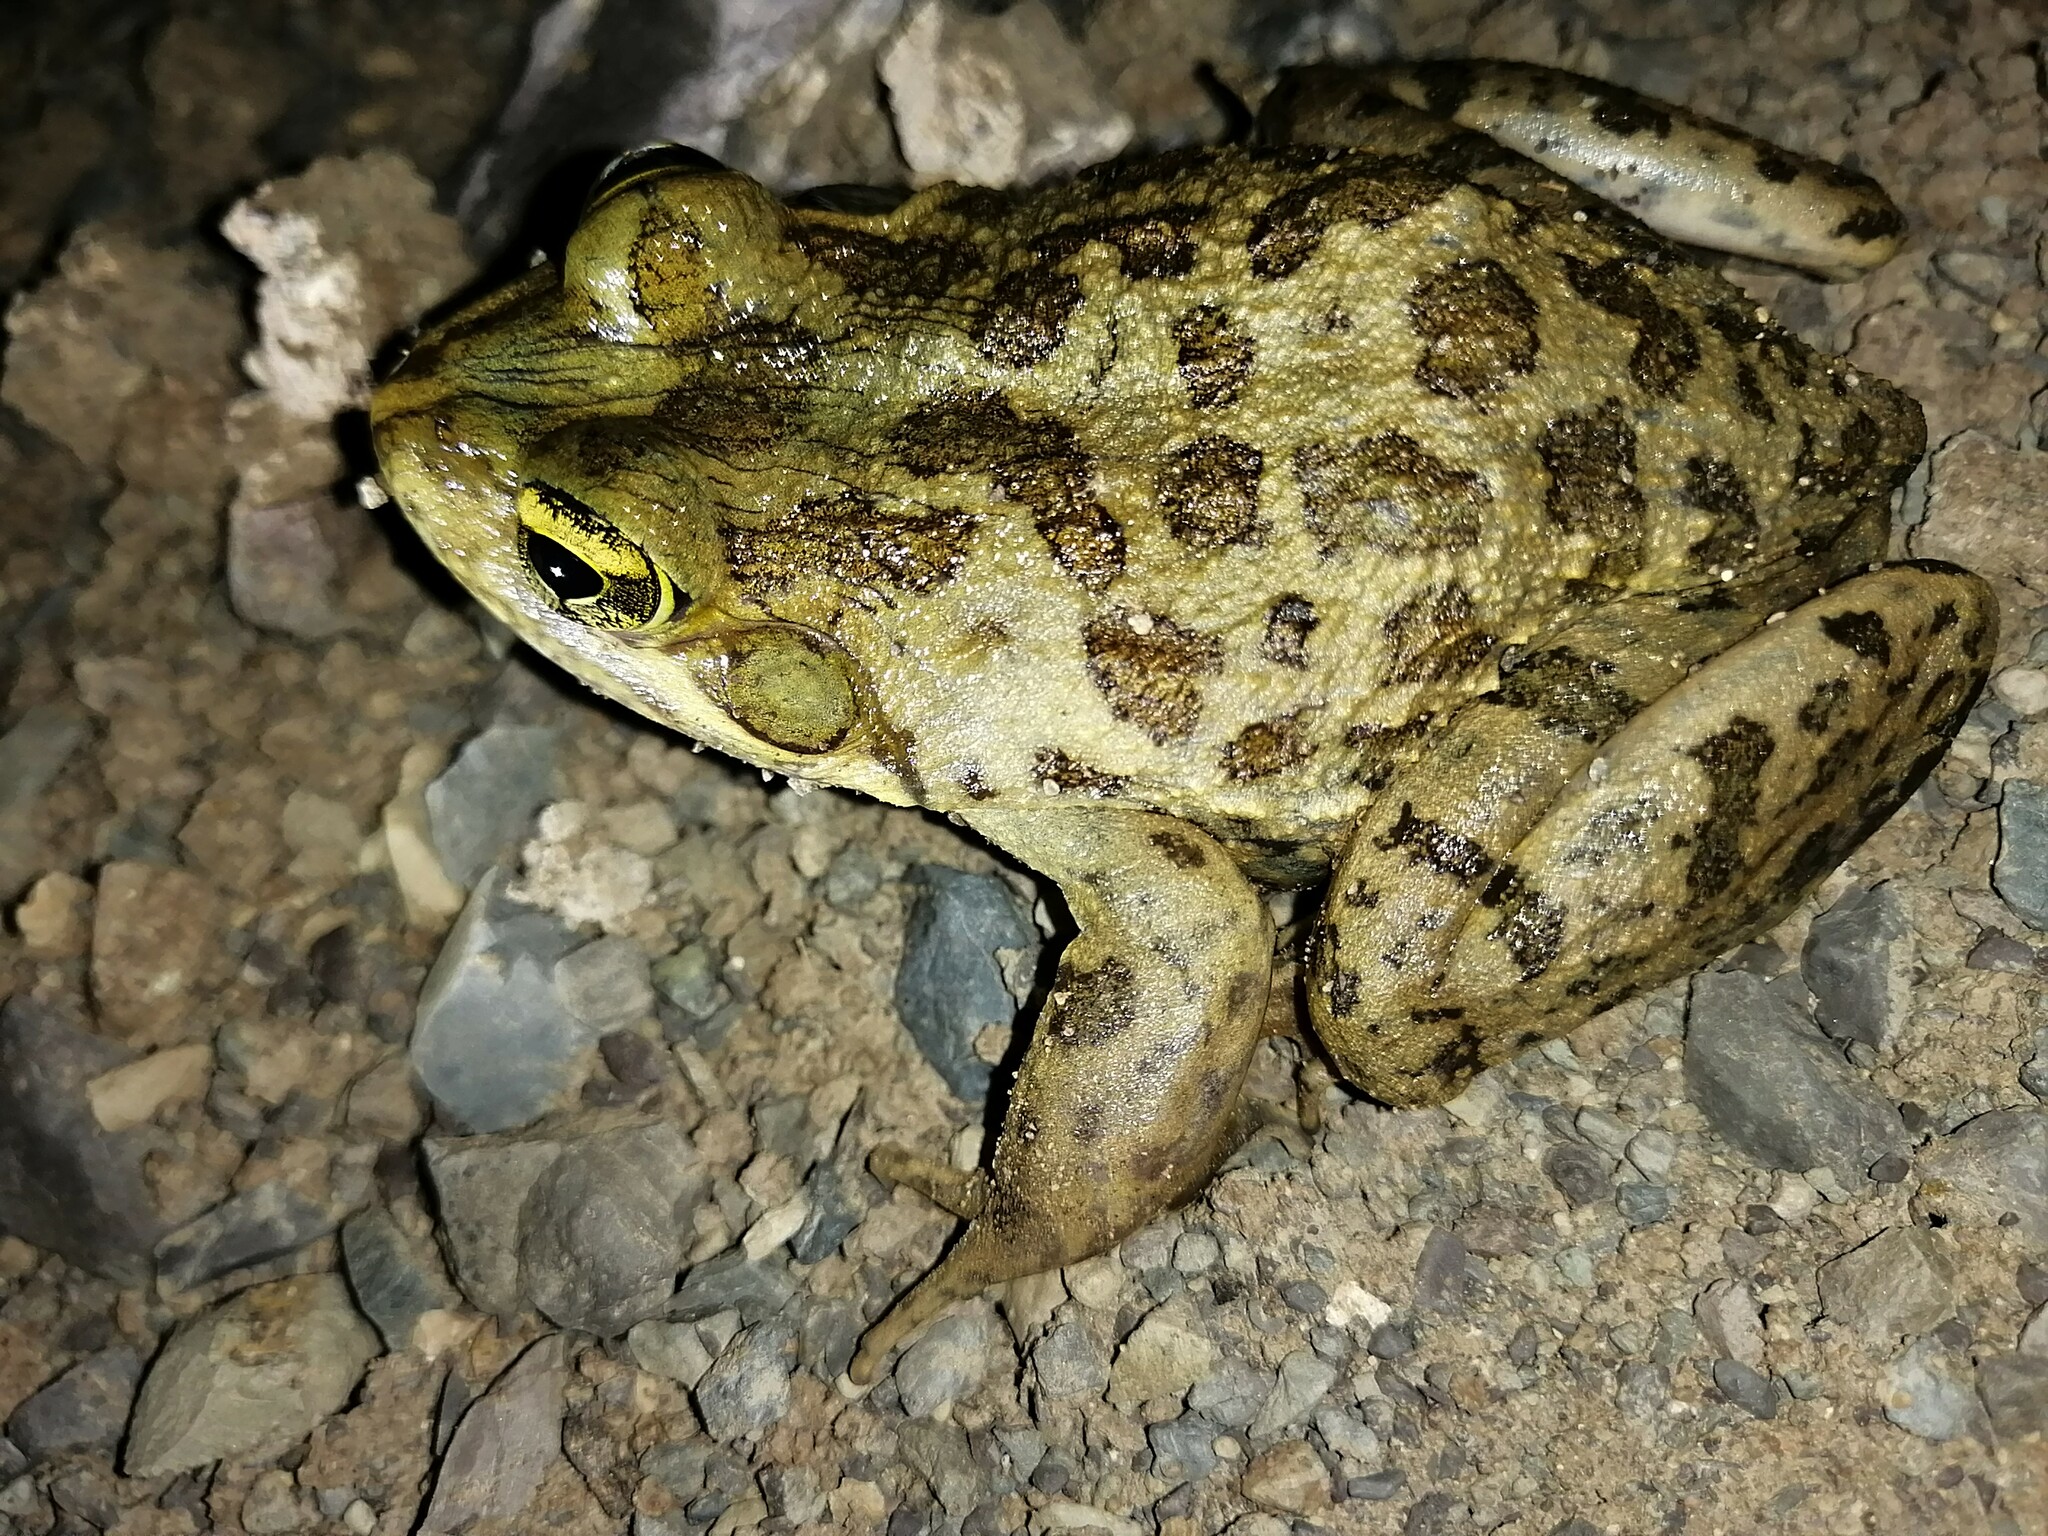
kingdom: Animalia
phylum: Chordata
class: Amphibia
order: Anura
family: Pyxicephalidae
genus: Amietia
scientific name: Amietia poyntoni
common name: Poynton's river frog
